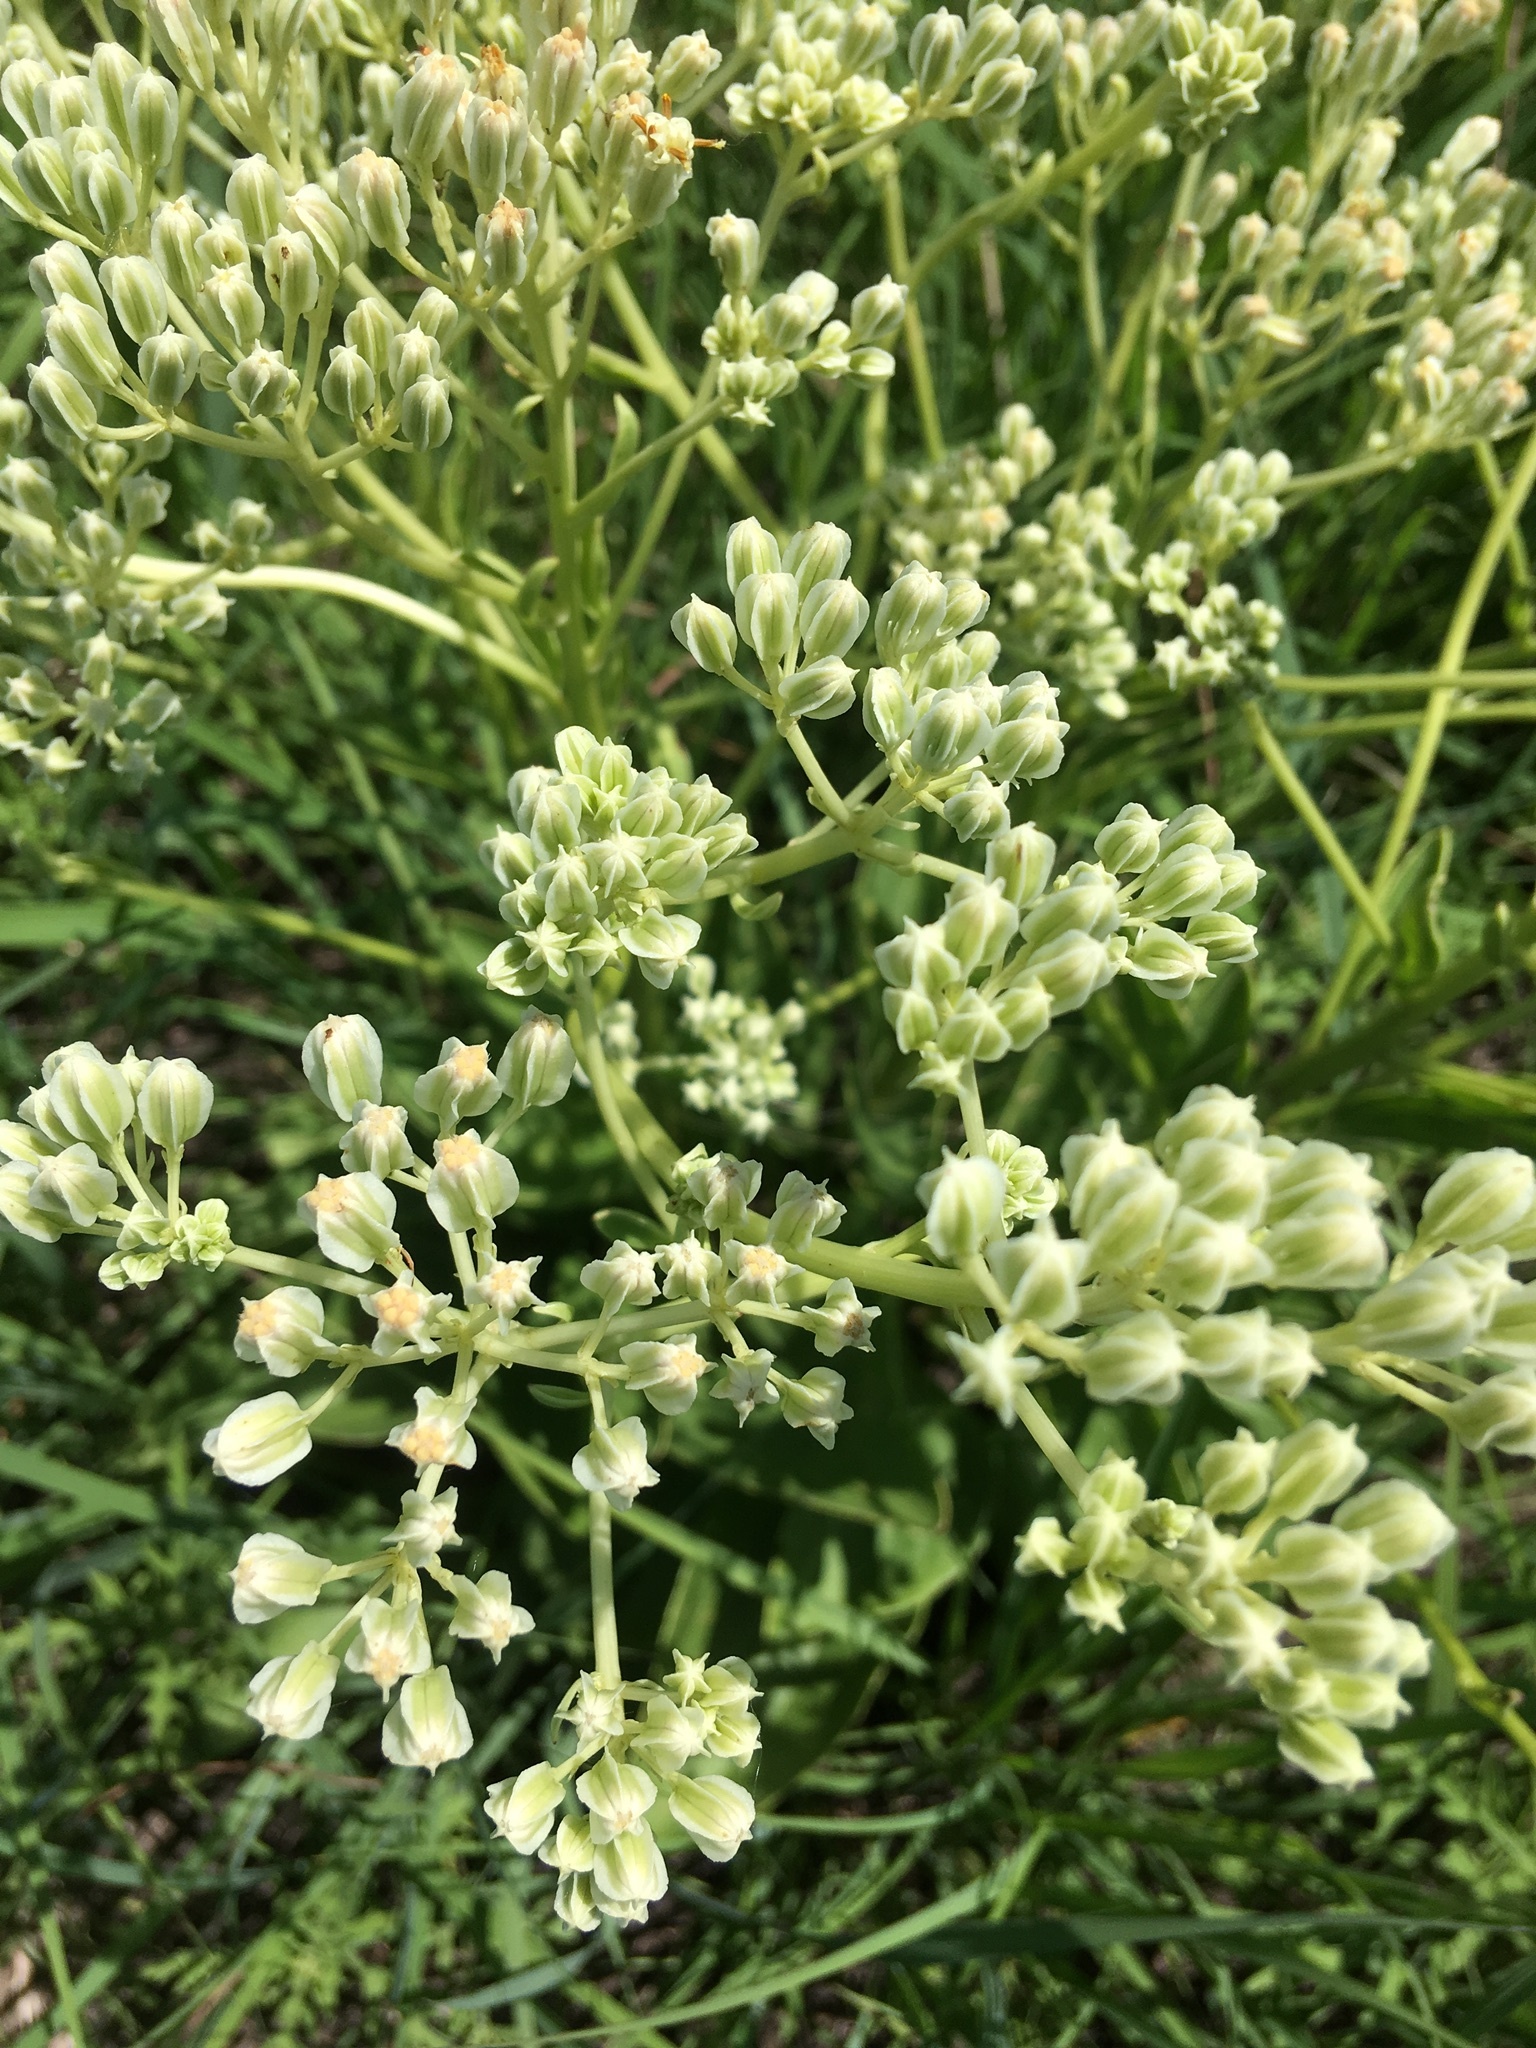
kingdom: Plantae
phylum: Tracheophyta
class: Magnoliopsida
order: Asterales
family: Asteraceae
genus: Arnoglossum
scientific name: Arnoglossum plantagineum
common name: Groove-stemmed indian-plantain
